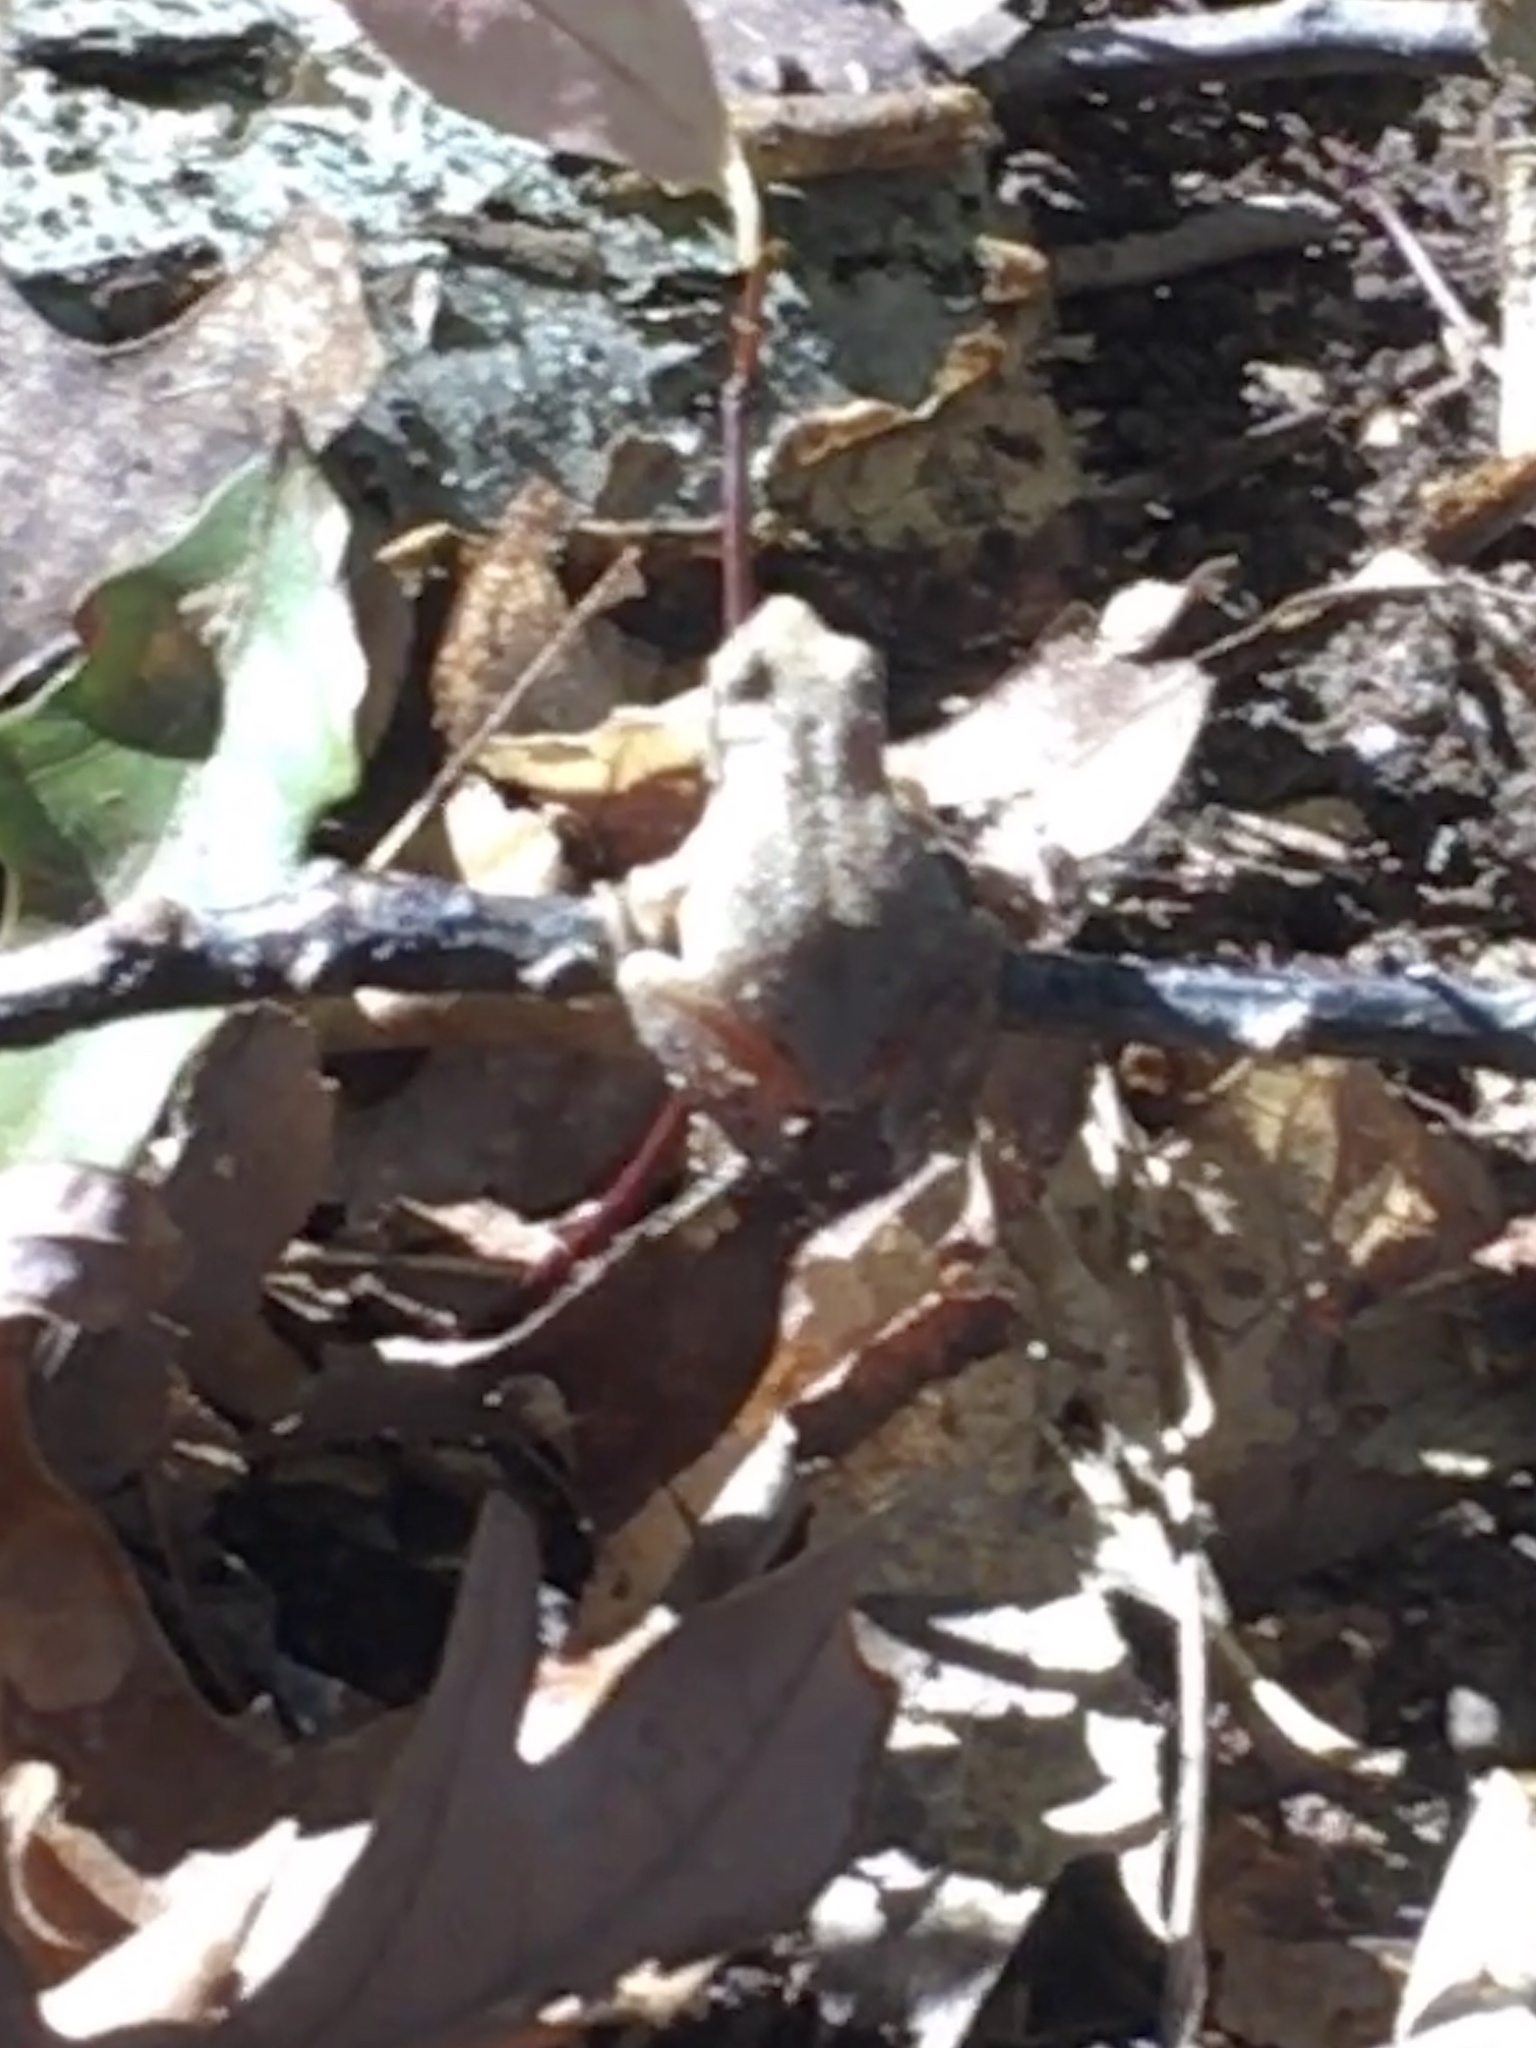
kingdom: Animalia
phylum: Chordata
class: Amphibia
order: Anura
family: Hylidae
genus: Pseudacris
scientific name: Pseudacris crucifer
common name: Spring peeper
